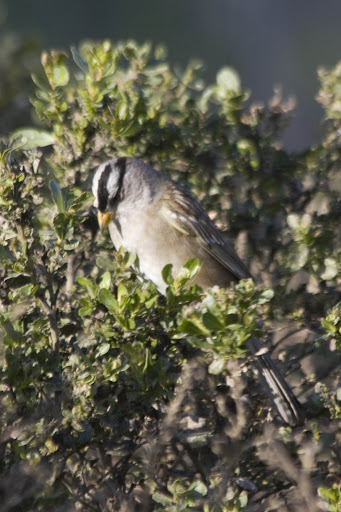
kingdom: Animalia
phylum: Chordata
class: Aves
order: Passeriformes
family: Passerellidae
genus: Zonotrichia
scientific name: Zonotrichia leucophrys
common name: White-crowned sparrow
